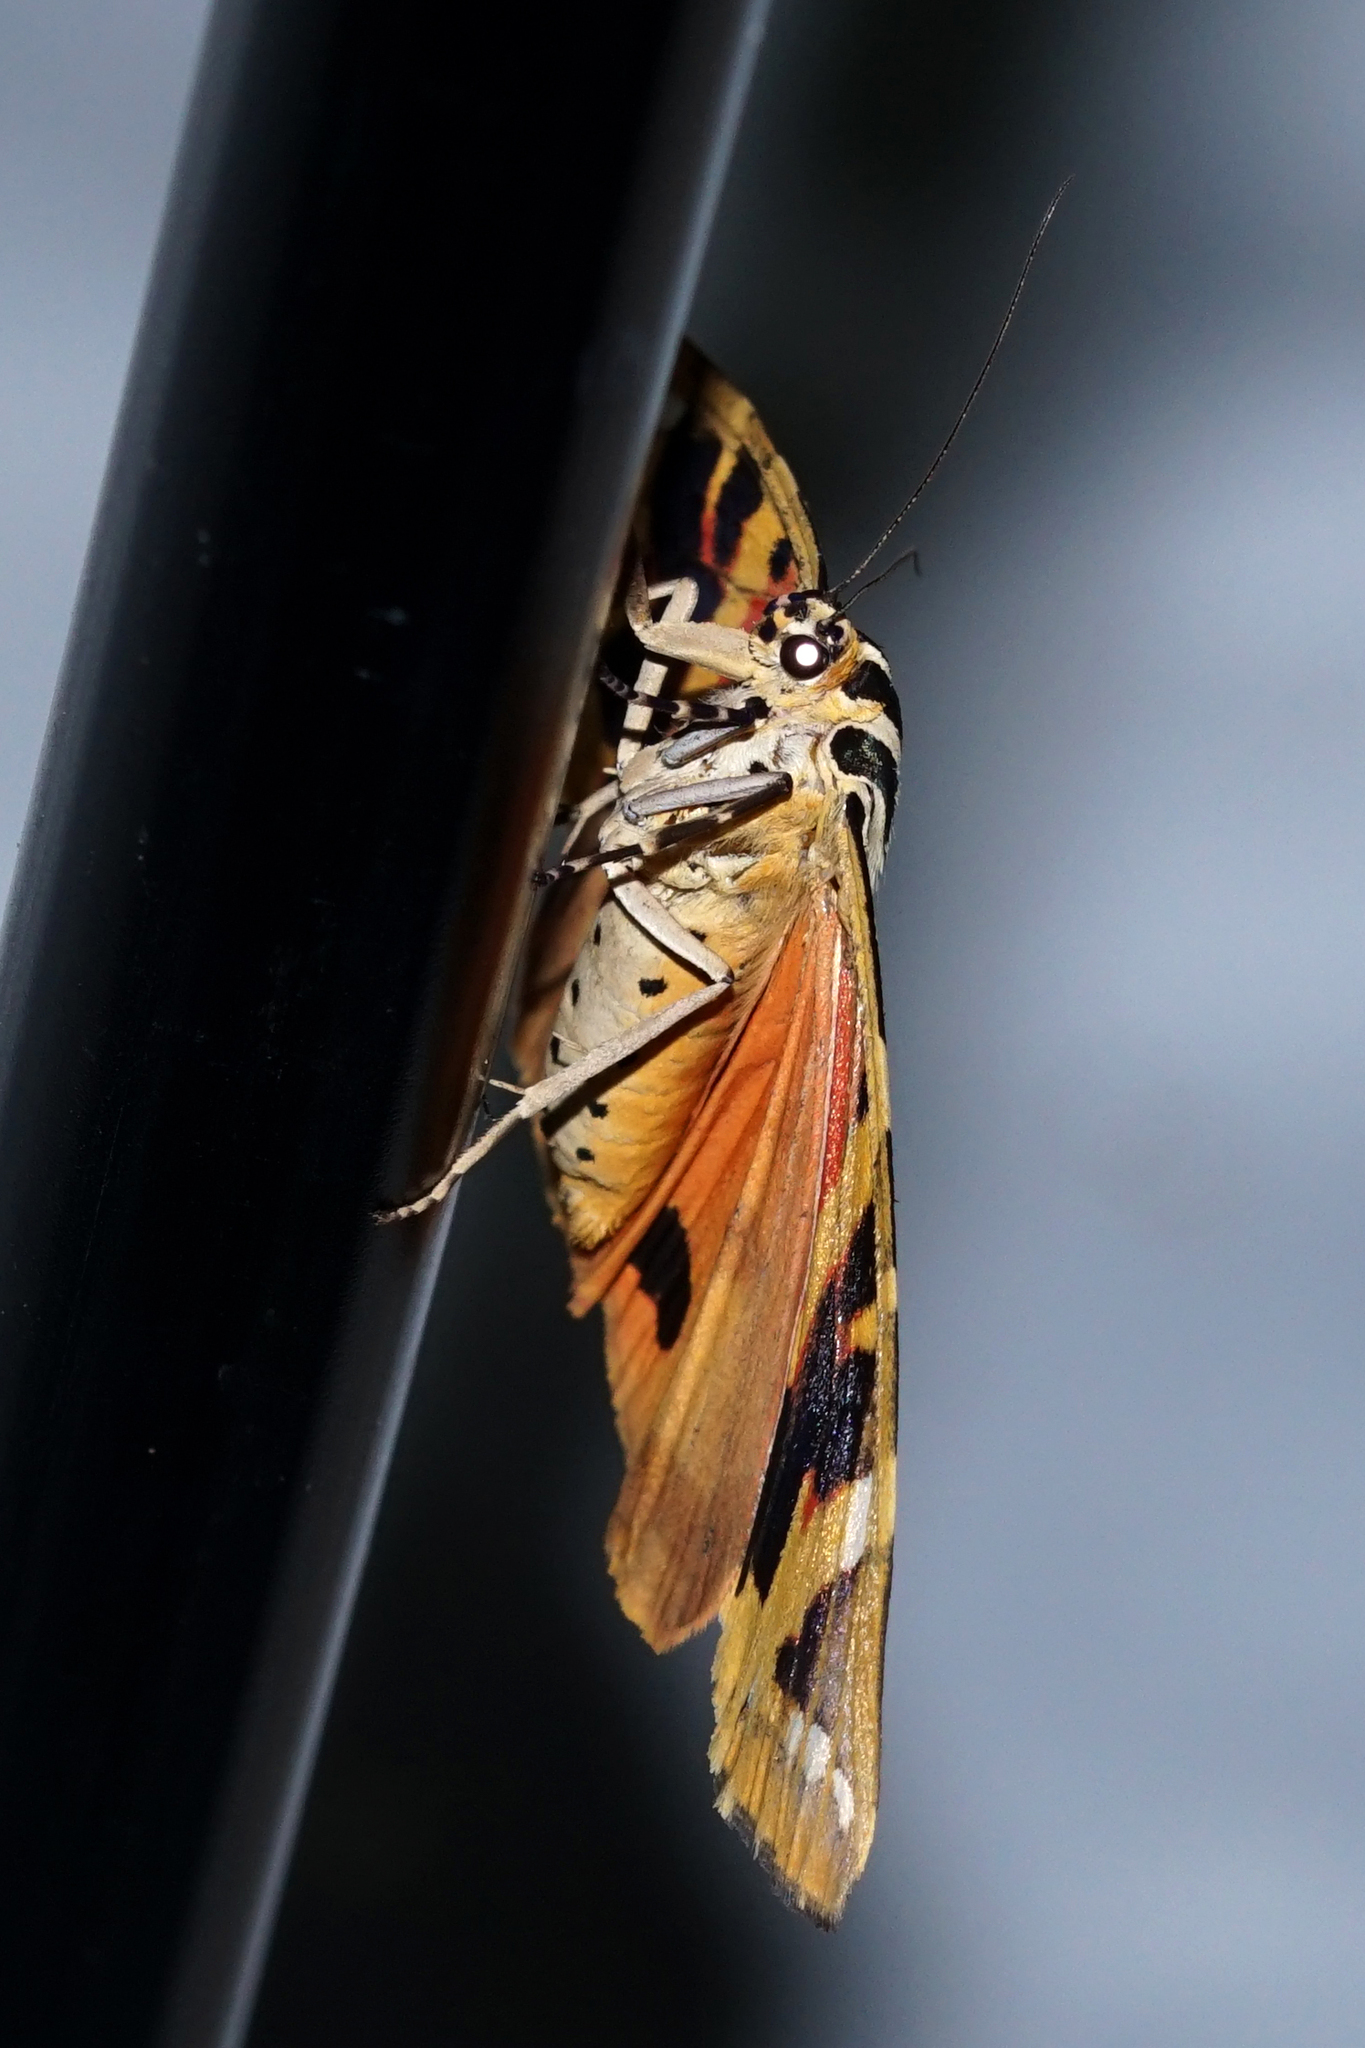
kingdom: Animalia
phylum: Arthropoda
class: Insecta
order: Lepidoptera
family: Erebidae
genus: Euplagia
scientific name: Euplagia quadripunctaria
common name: Jersey tiger
